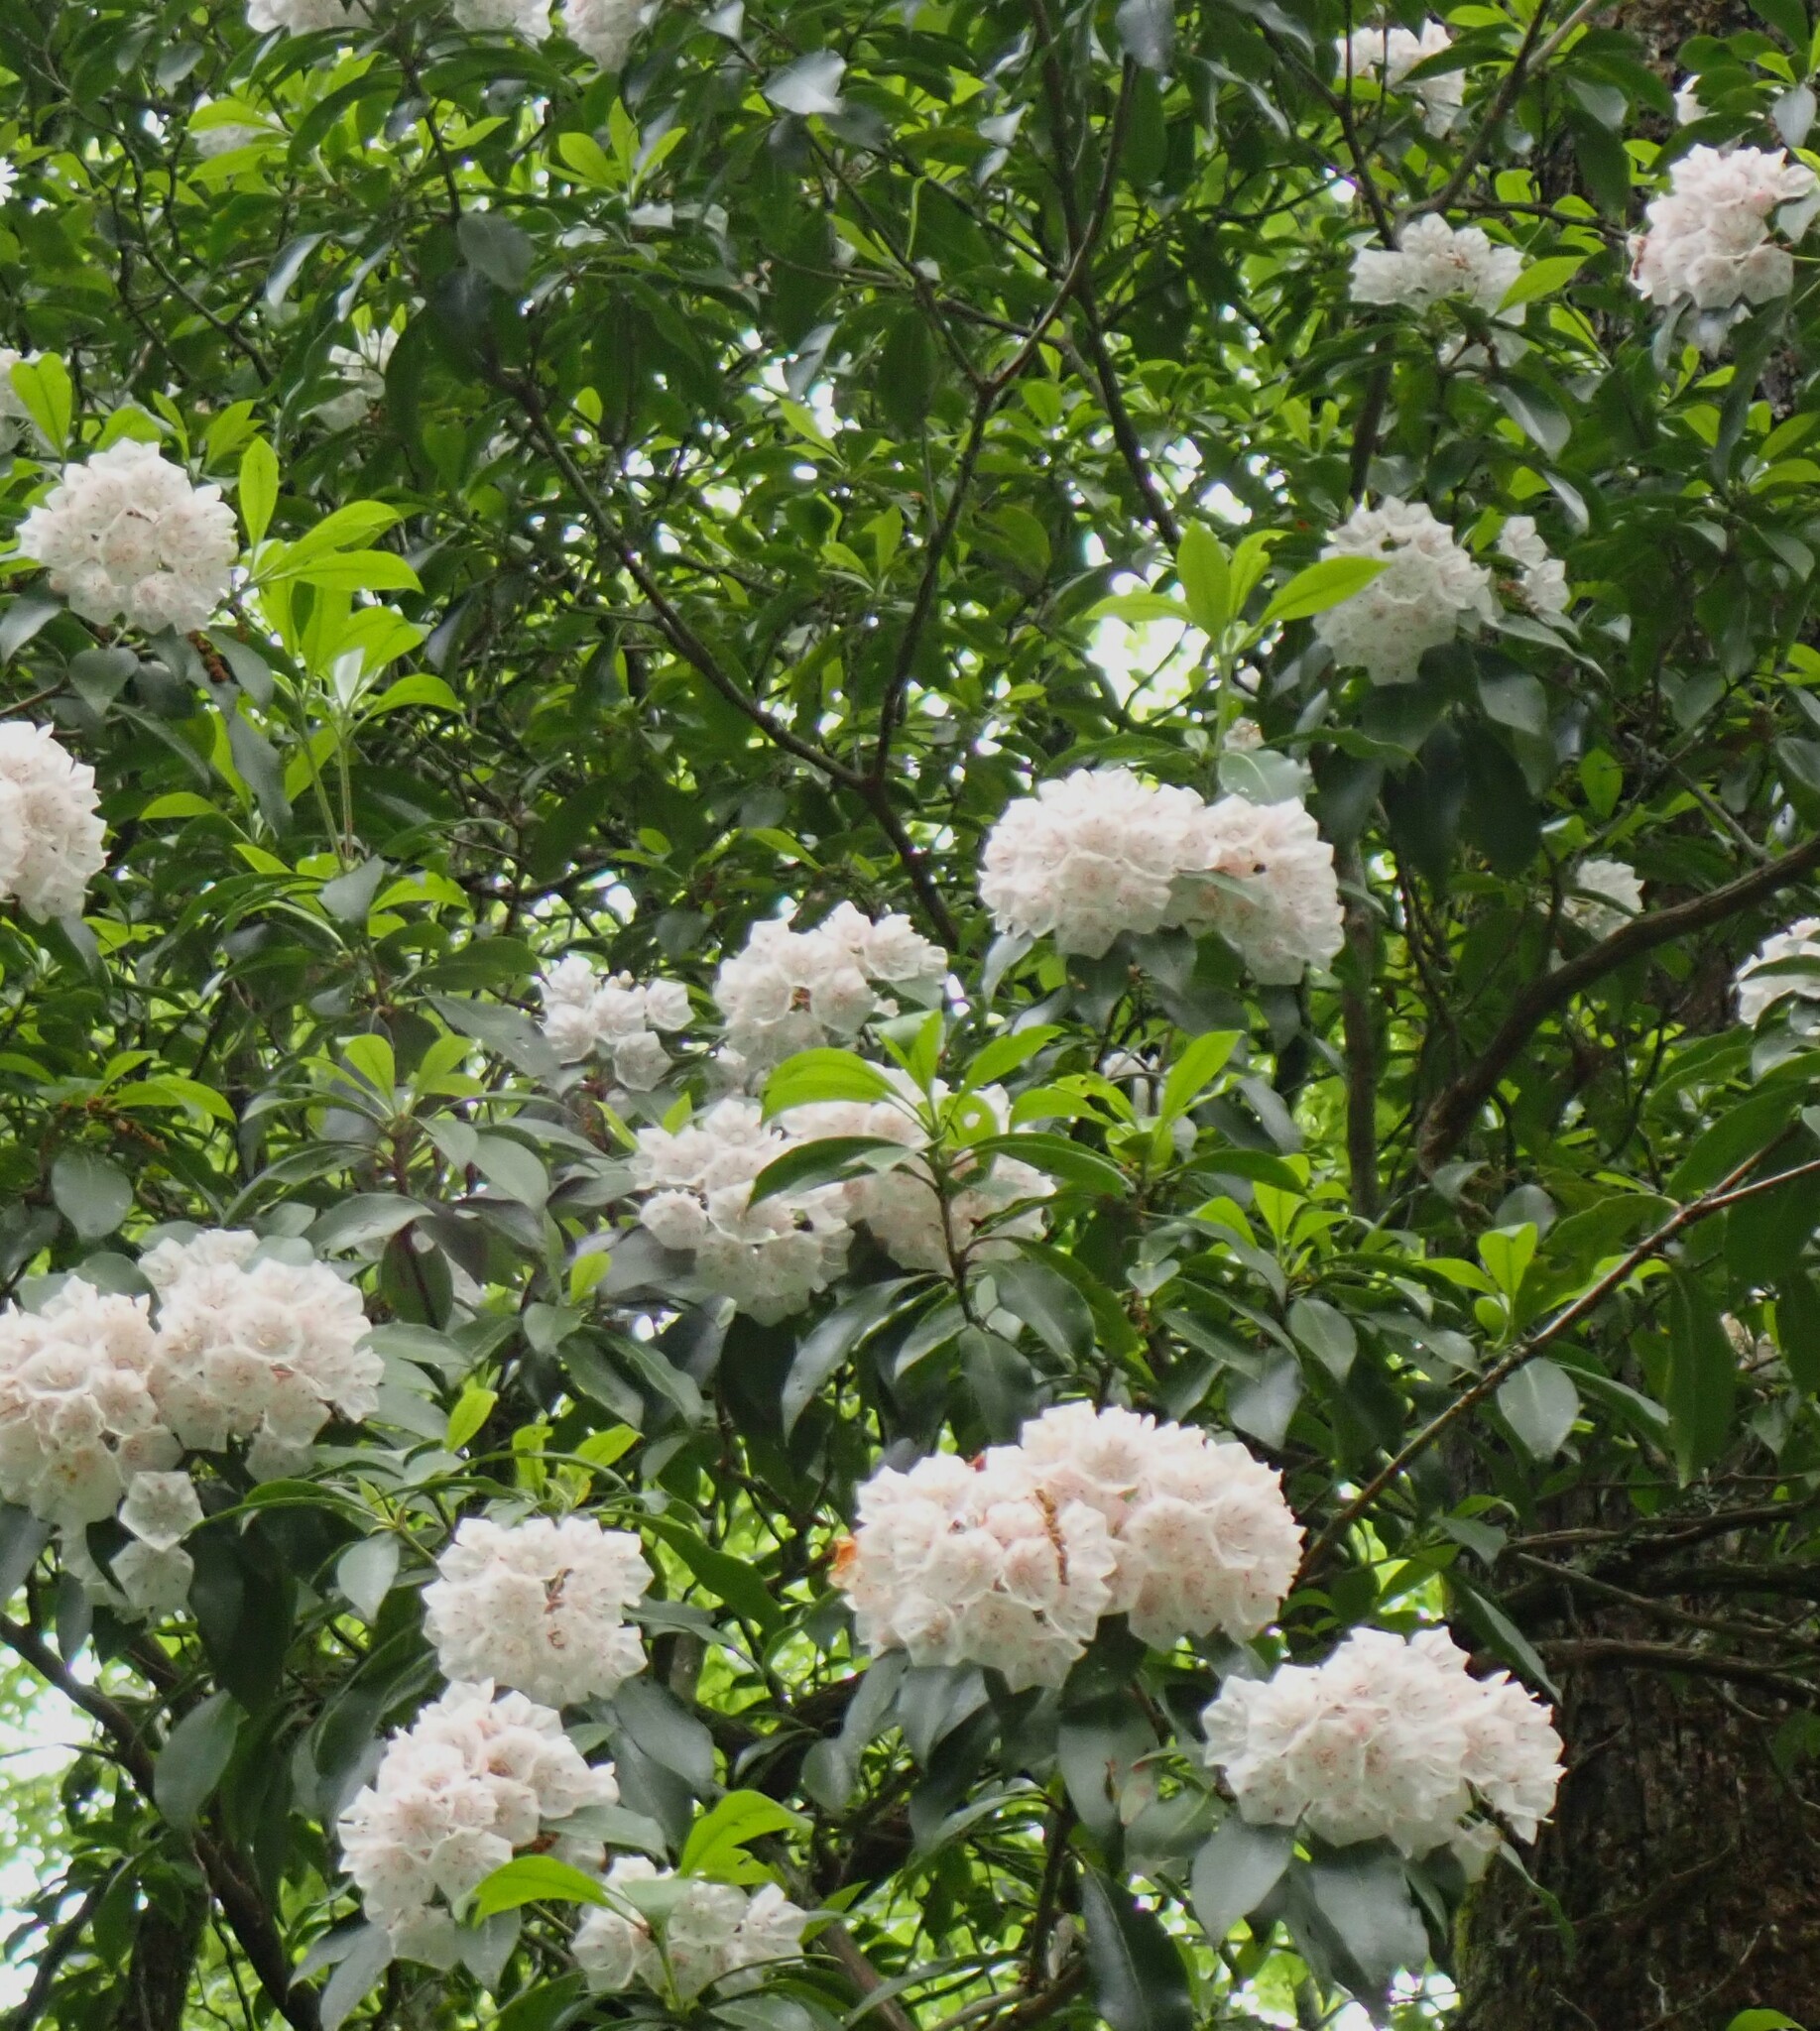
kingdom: Plantae
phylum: Tracheophyta
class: Magnoliopsida
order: Ericales
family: Ericaceae
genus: Kalmia
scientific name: Kalmia latifolia
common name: Mountain-laurel
